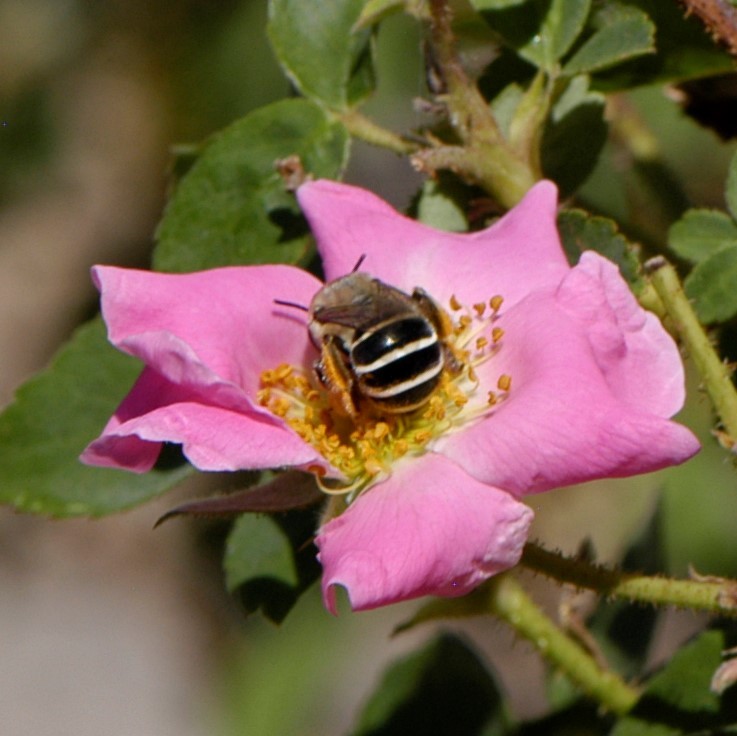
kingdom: Animalia
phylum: Arthropoda
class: Insecta
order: Hymenoptera
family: Apidae
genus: Anthophora
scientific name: Anthophora californica
